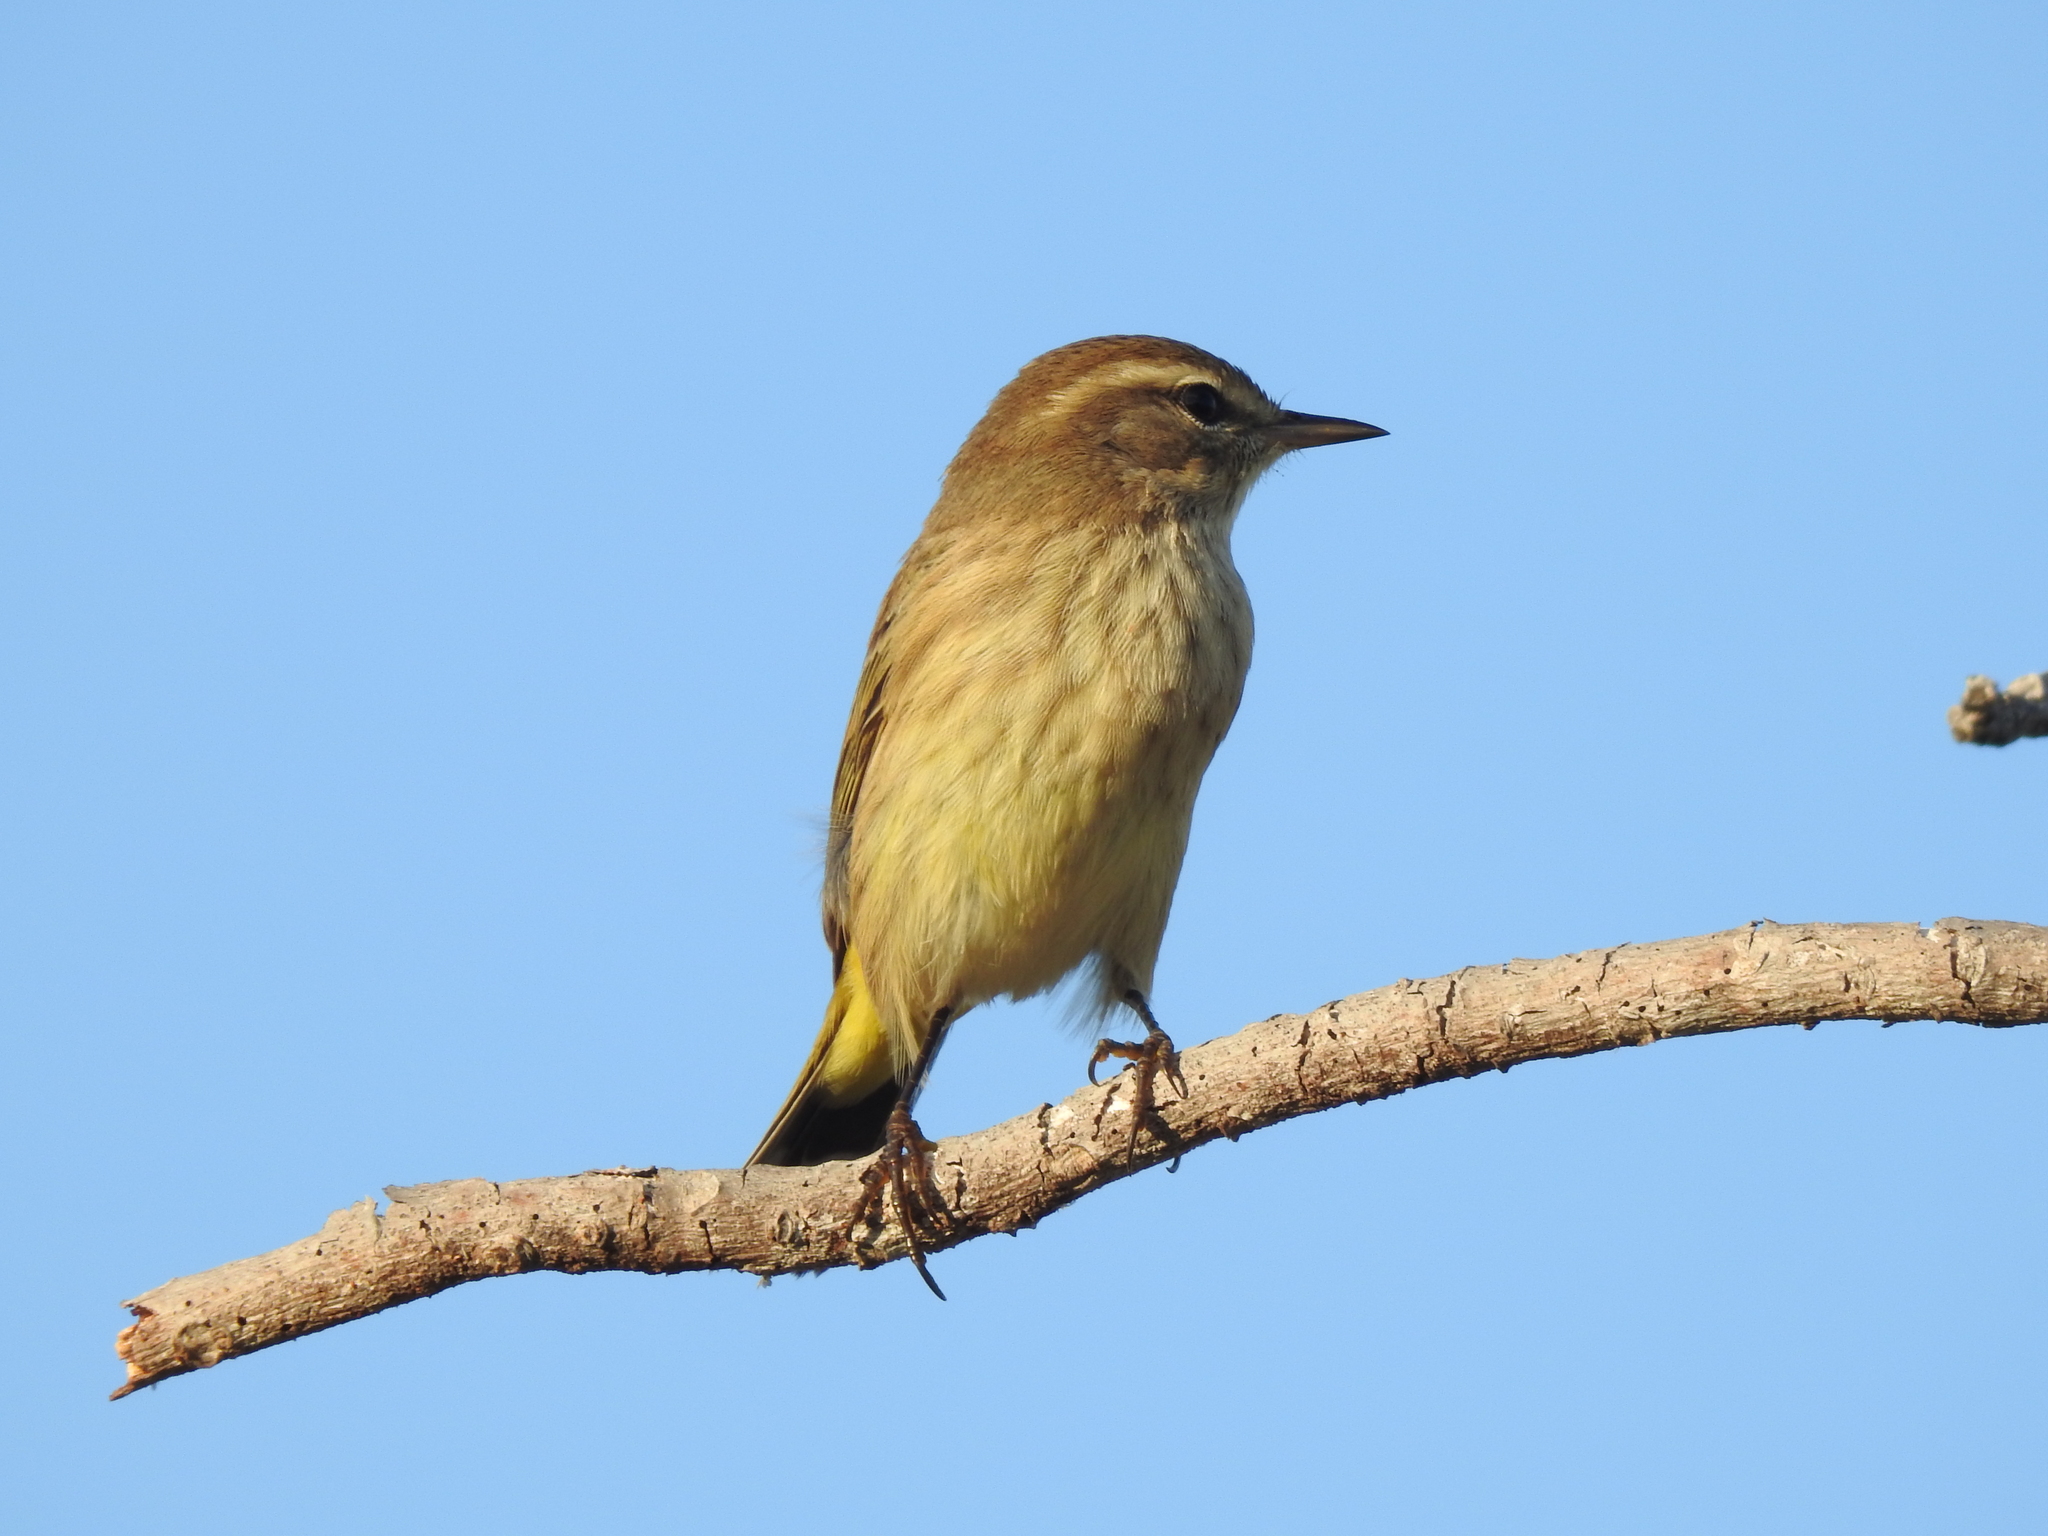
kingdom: Animalia
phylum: Chordata
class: Aves
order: Passeriformes
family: Parulidae
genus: Setophaga
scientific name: Setophaga palmarum
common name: Palm warbler
